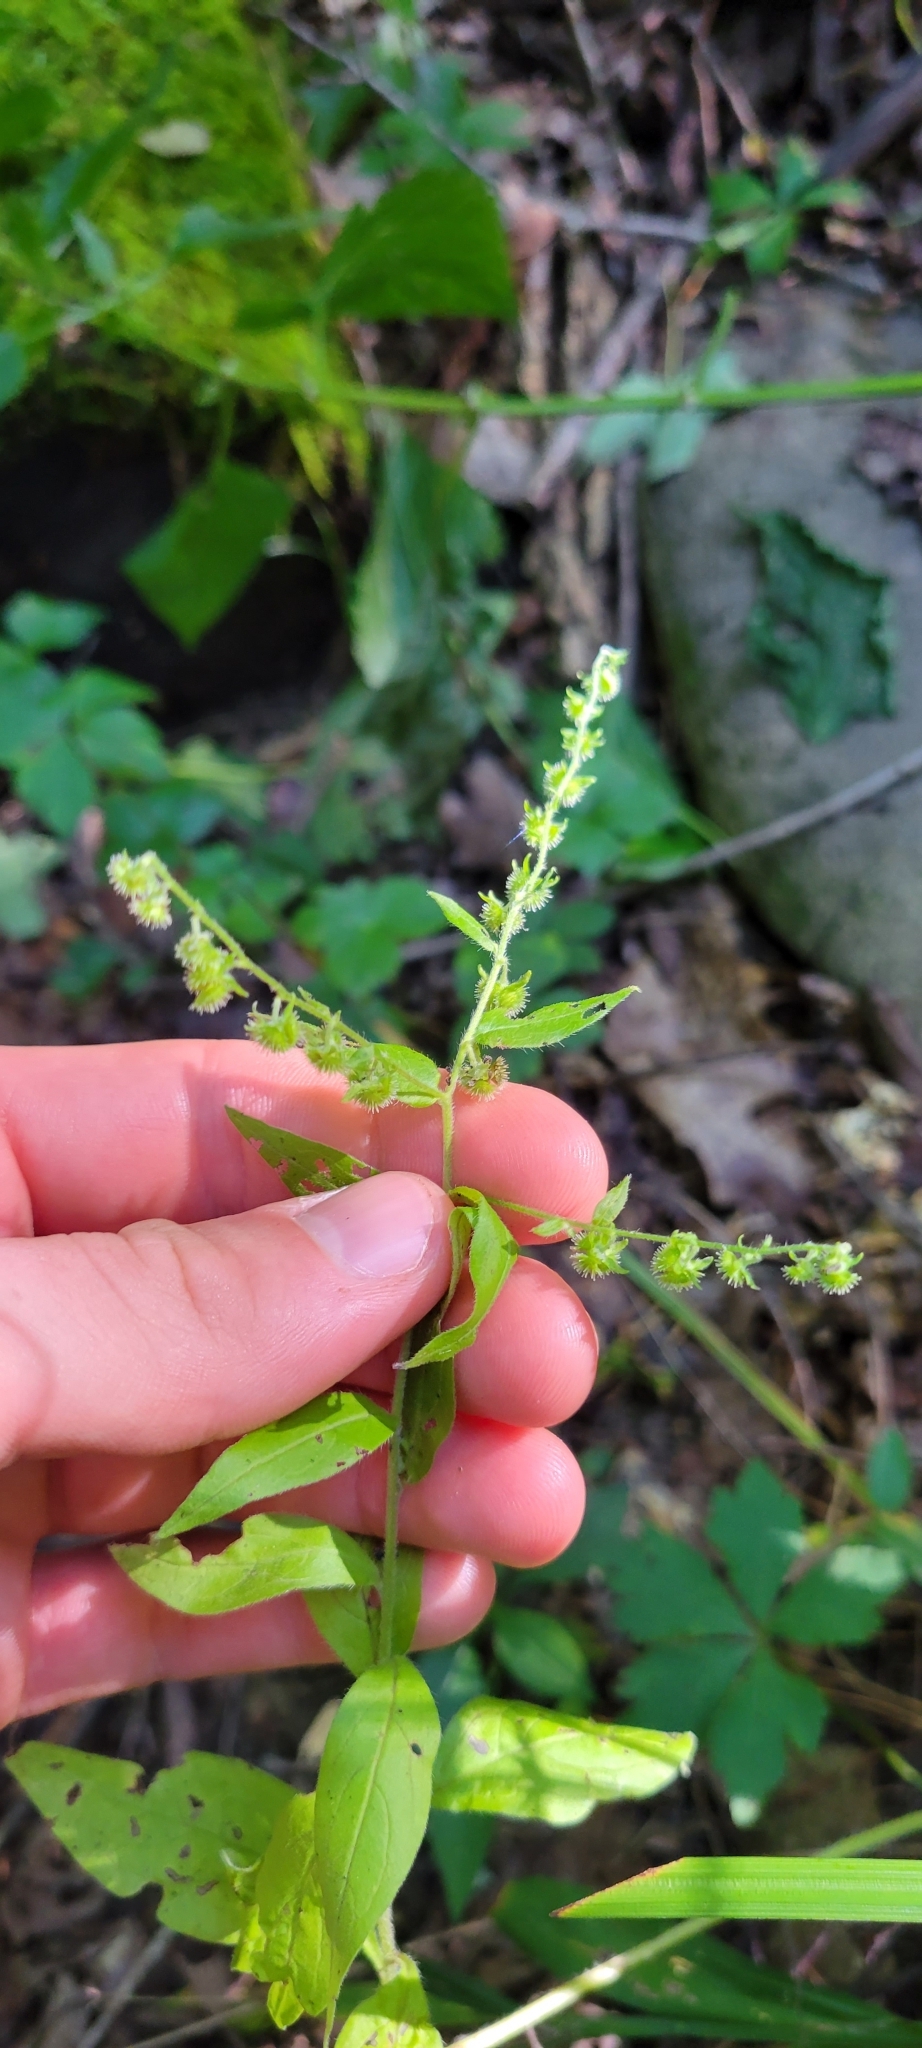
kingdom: Plantae
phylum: Tracheophyta
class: Magnoliopsida
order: Boraginales
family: Boraginaceae
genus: Hackelia
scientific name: Hackelia virginiana
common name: Beggar's-lice
